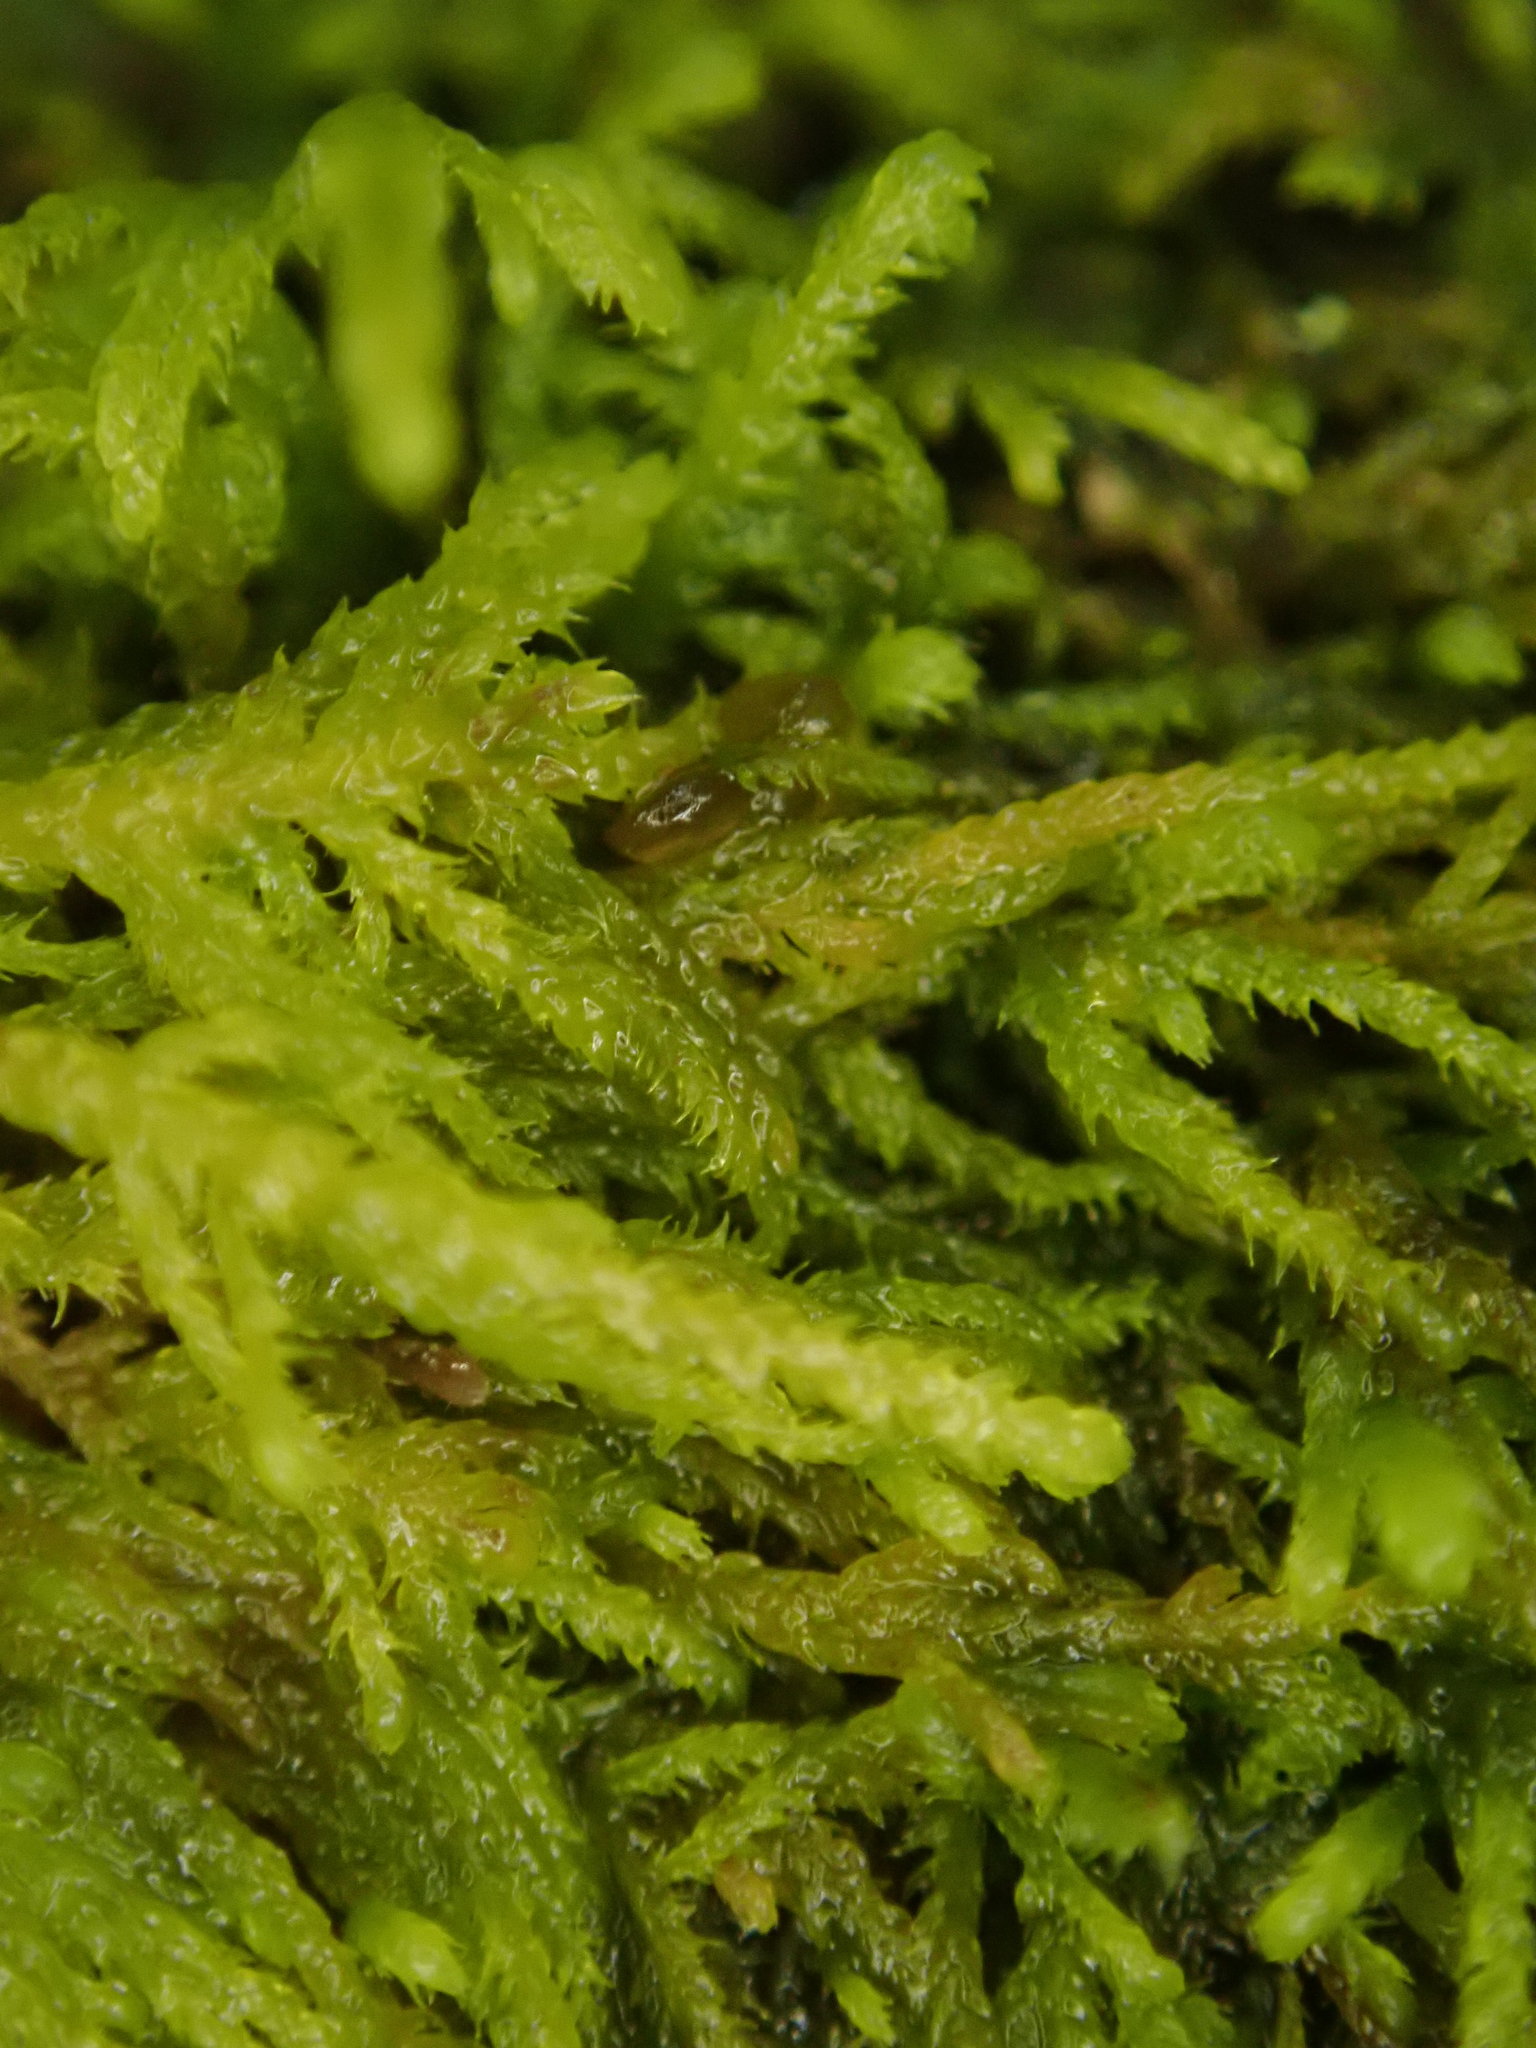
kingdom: Plantae
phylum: Bryophyta
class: Bryopsida
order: Hypnales
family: Lembophyllaceae
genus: Heterocladium
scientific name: Heterocladium macounii
